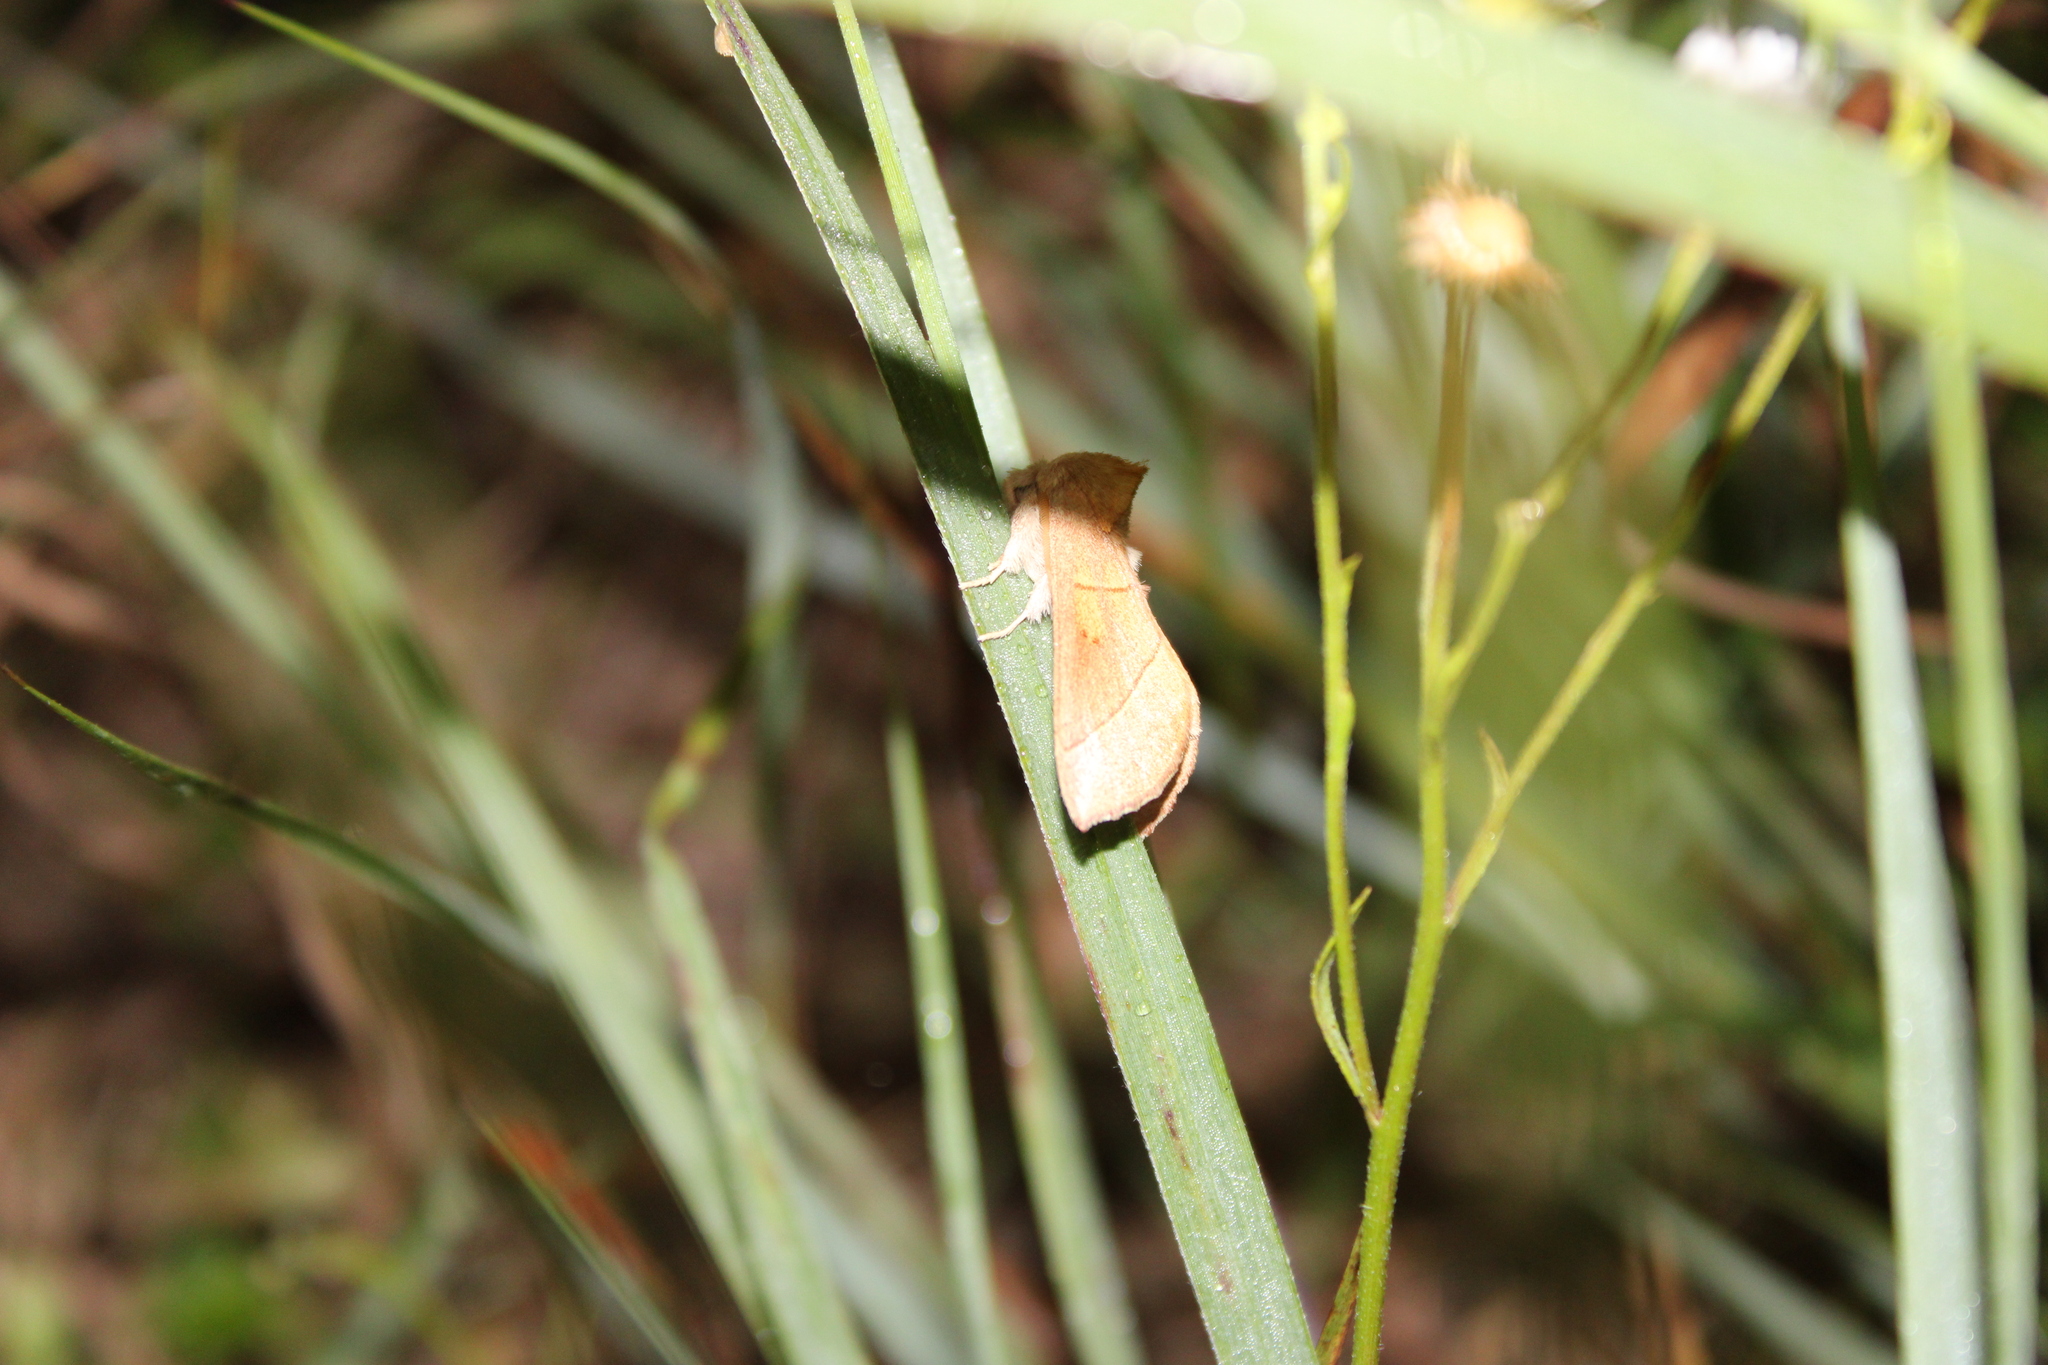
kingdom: Animalia
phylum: Arthropoda
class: Insecta
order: Lepidoptera
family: Notodontidae
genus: Nadata
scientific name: Nadata gibbosa
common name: White-dotted prominent
